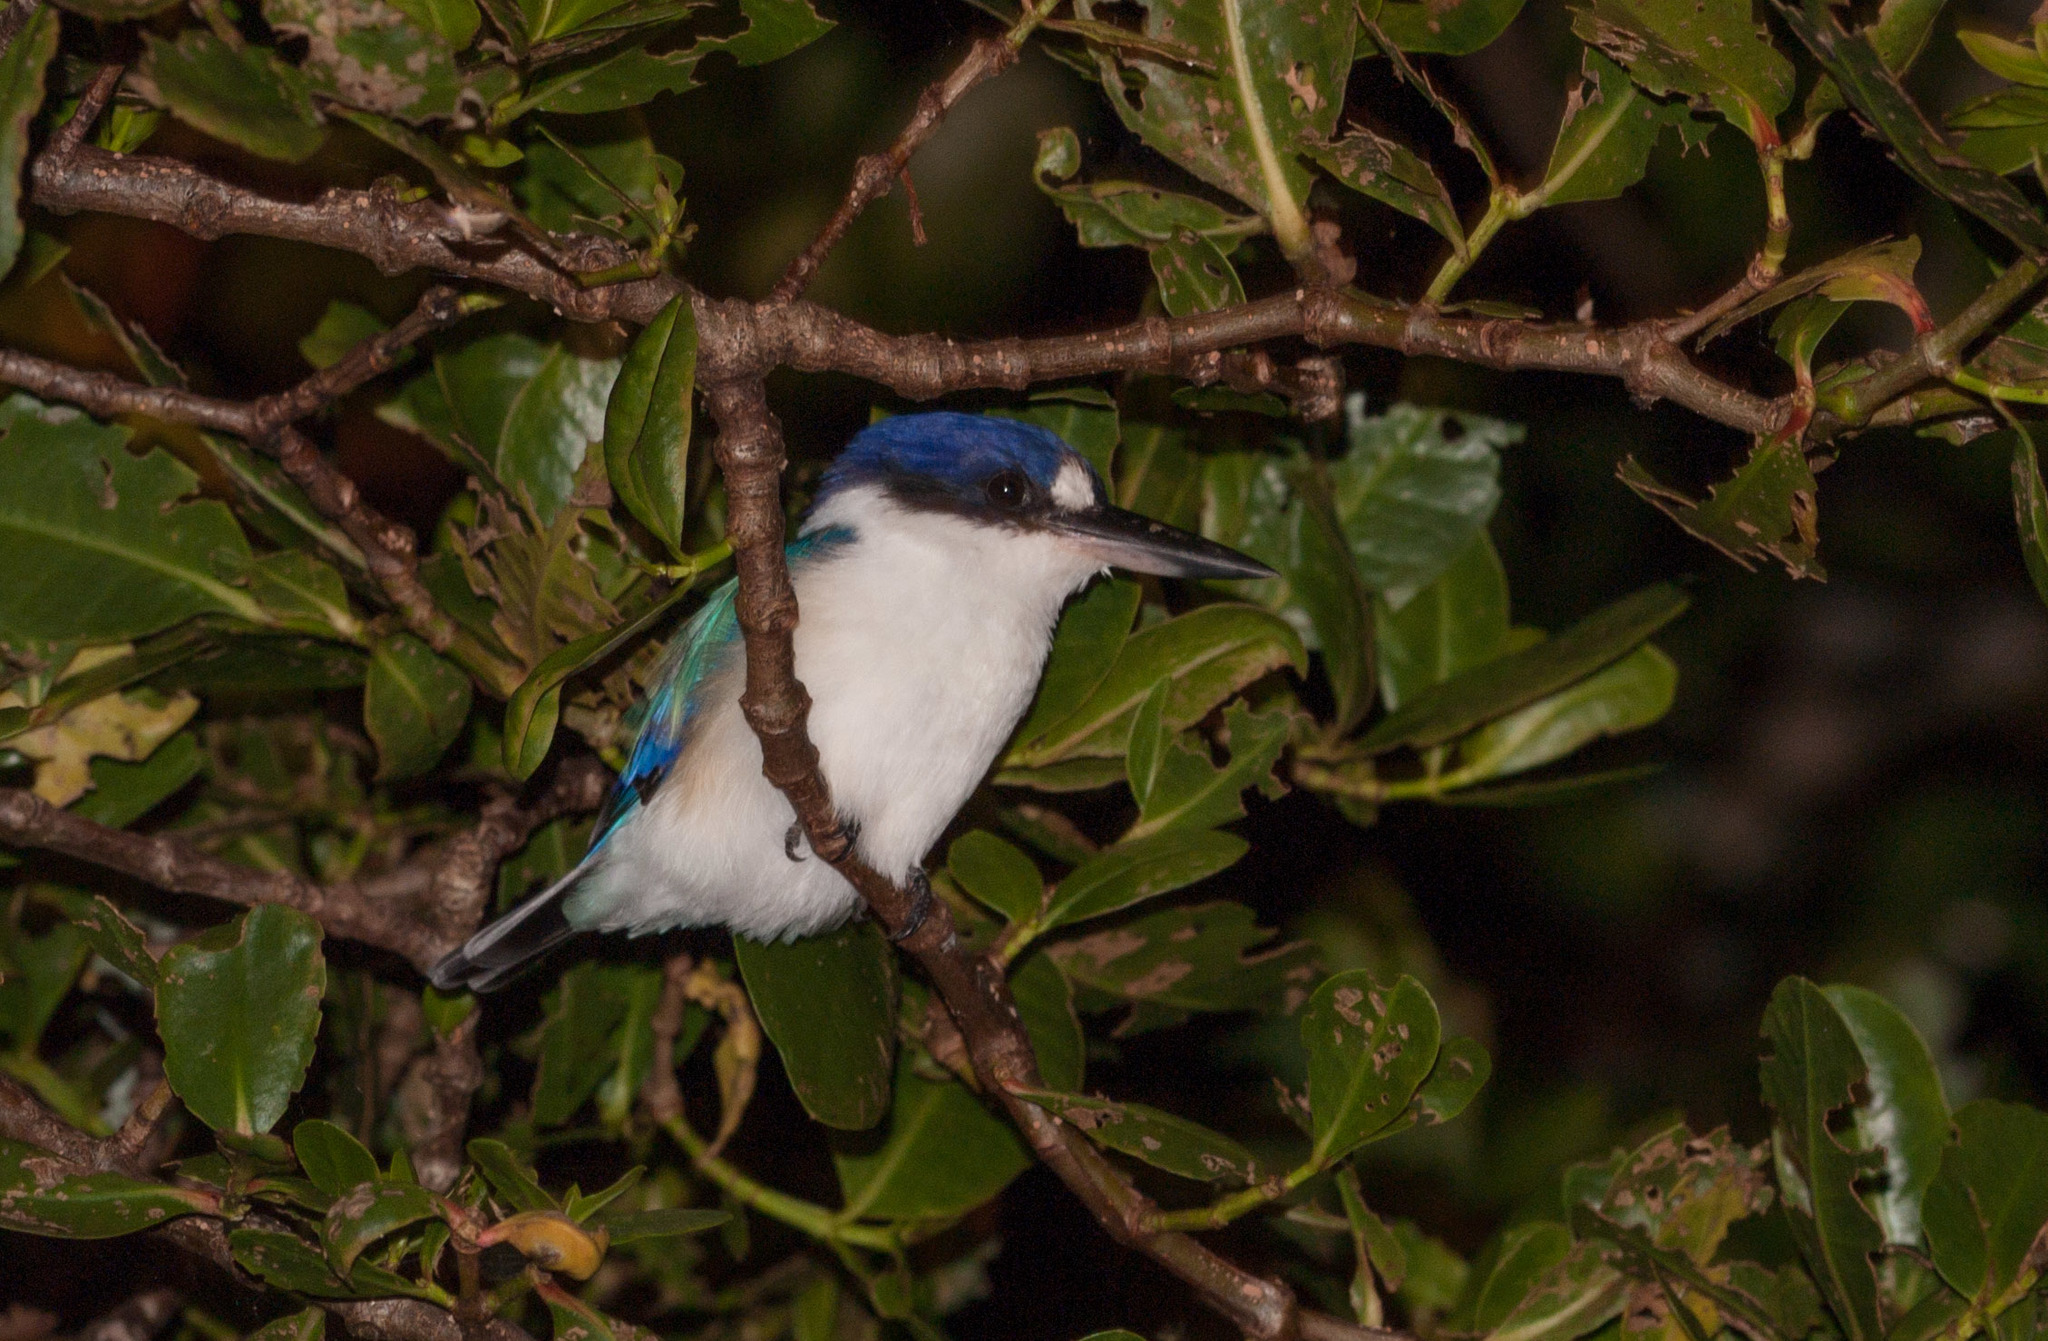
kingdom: Animalia
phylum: Chordata
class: Aves
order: Coraciiformes
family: Alcedinidae
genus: Todiramphus
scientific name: Todiramphus macleayii
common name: Forest kingfisher
